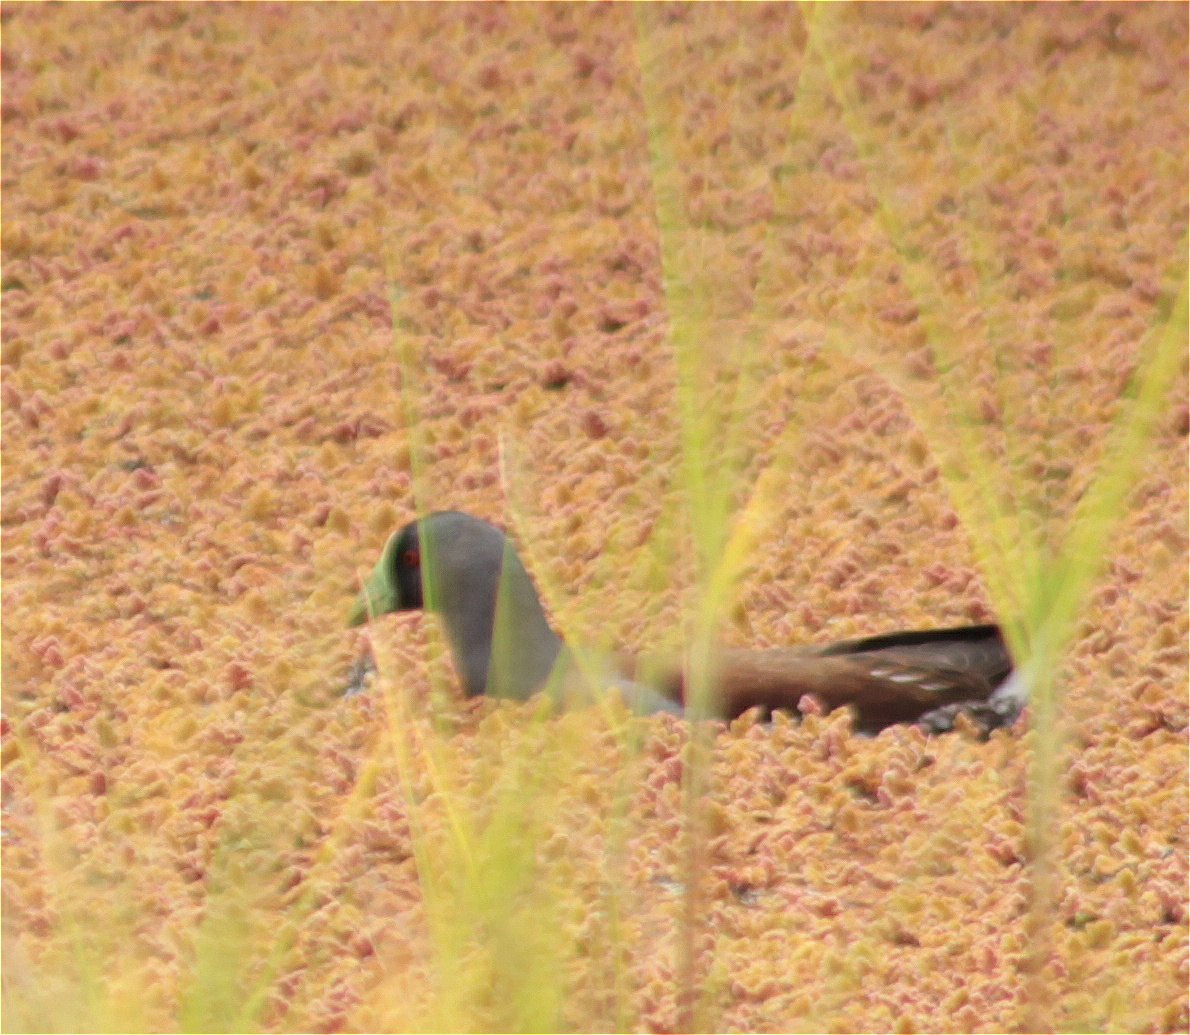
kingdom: Animalia
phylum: Chordata
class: Aves
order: Gruiformes
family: Rallidae
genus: Gallinula
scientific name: Gallinula melanops
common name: Spot-flanked gallinule
